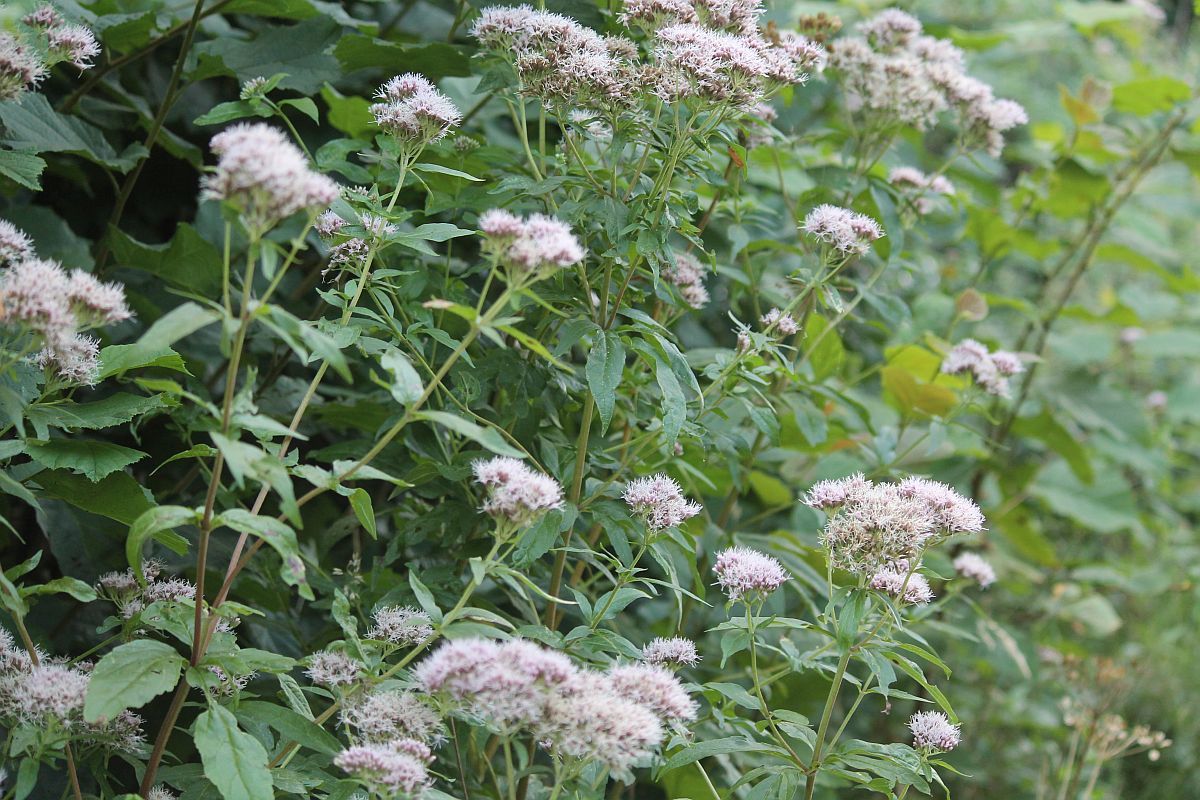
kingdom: Plantae
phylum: Tracheophyta
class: Magnoliopsida
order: Asterales
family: Asteraceae
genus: Eupatorium
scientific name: Eupatorium cannabinum
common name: Hemp-agrimony
